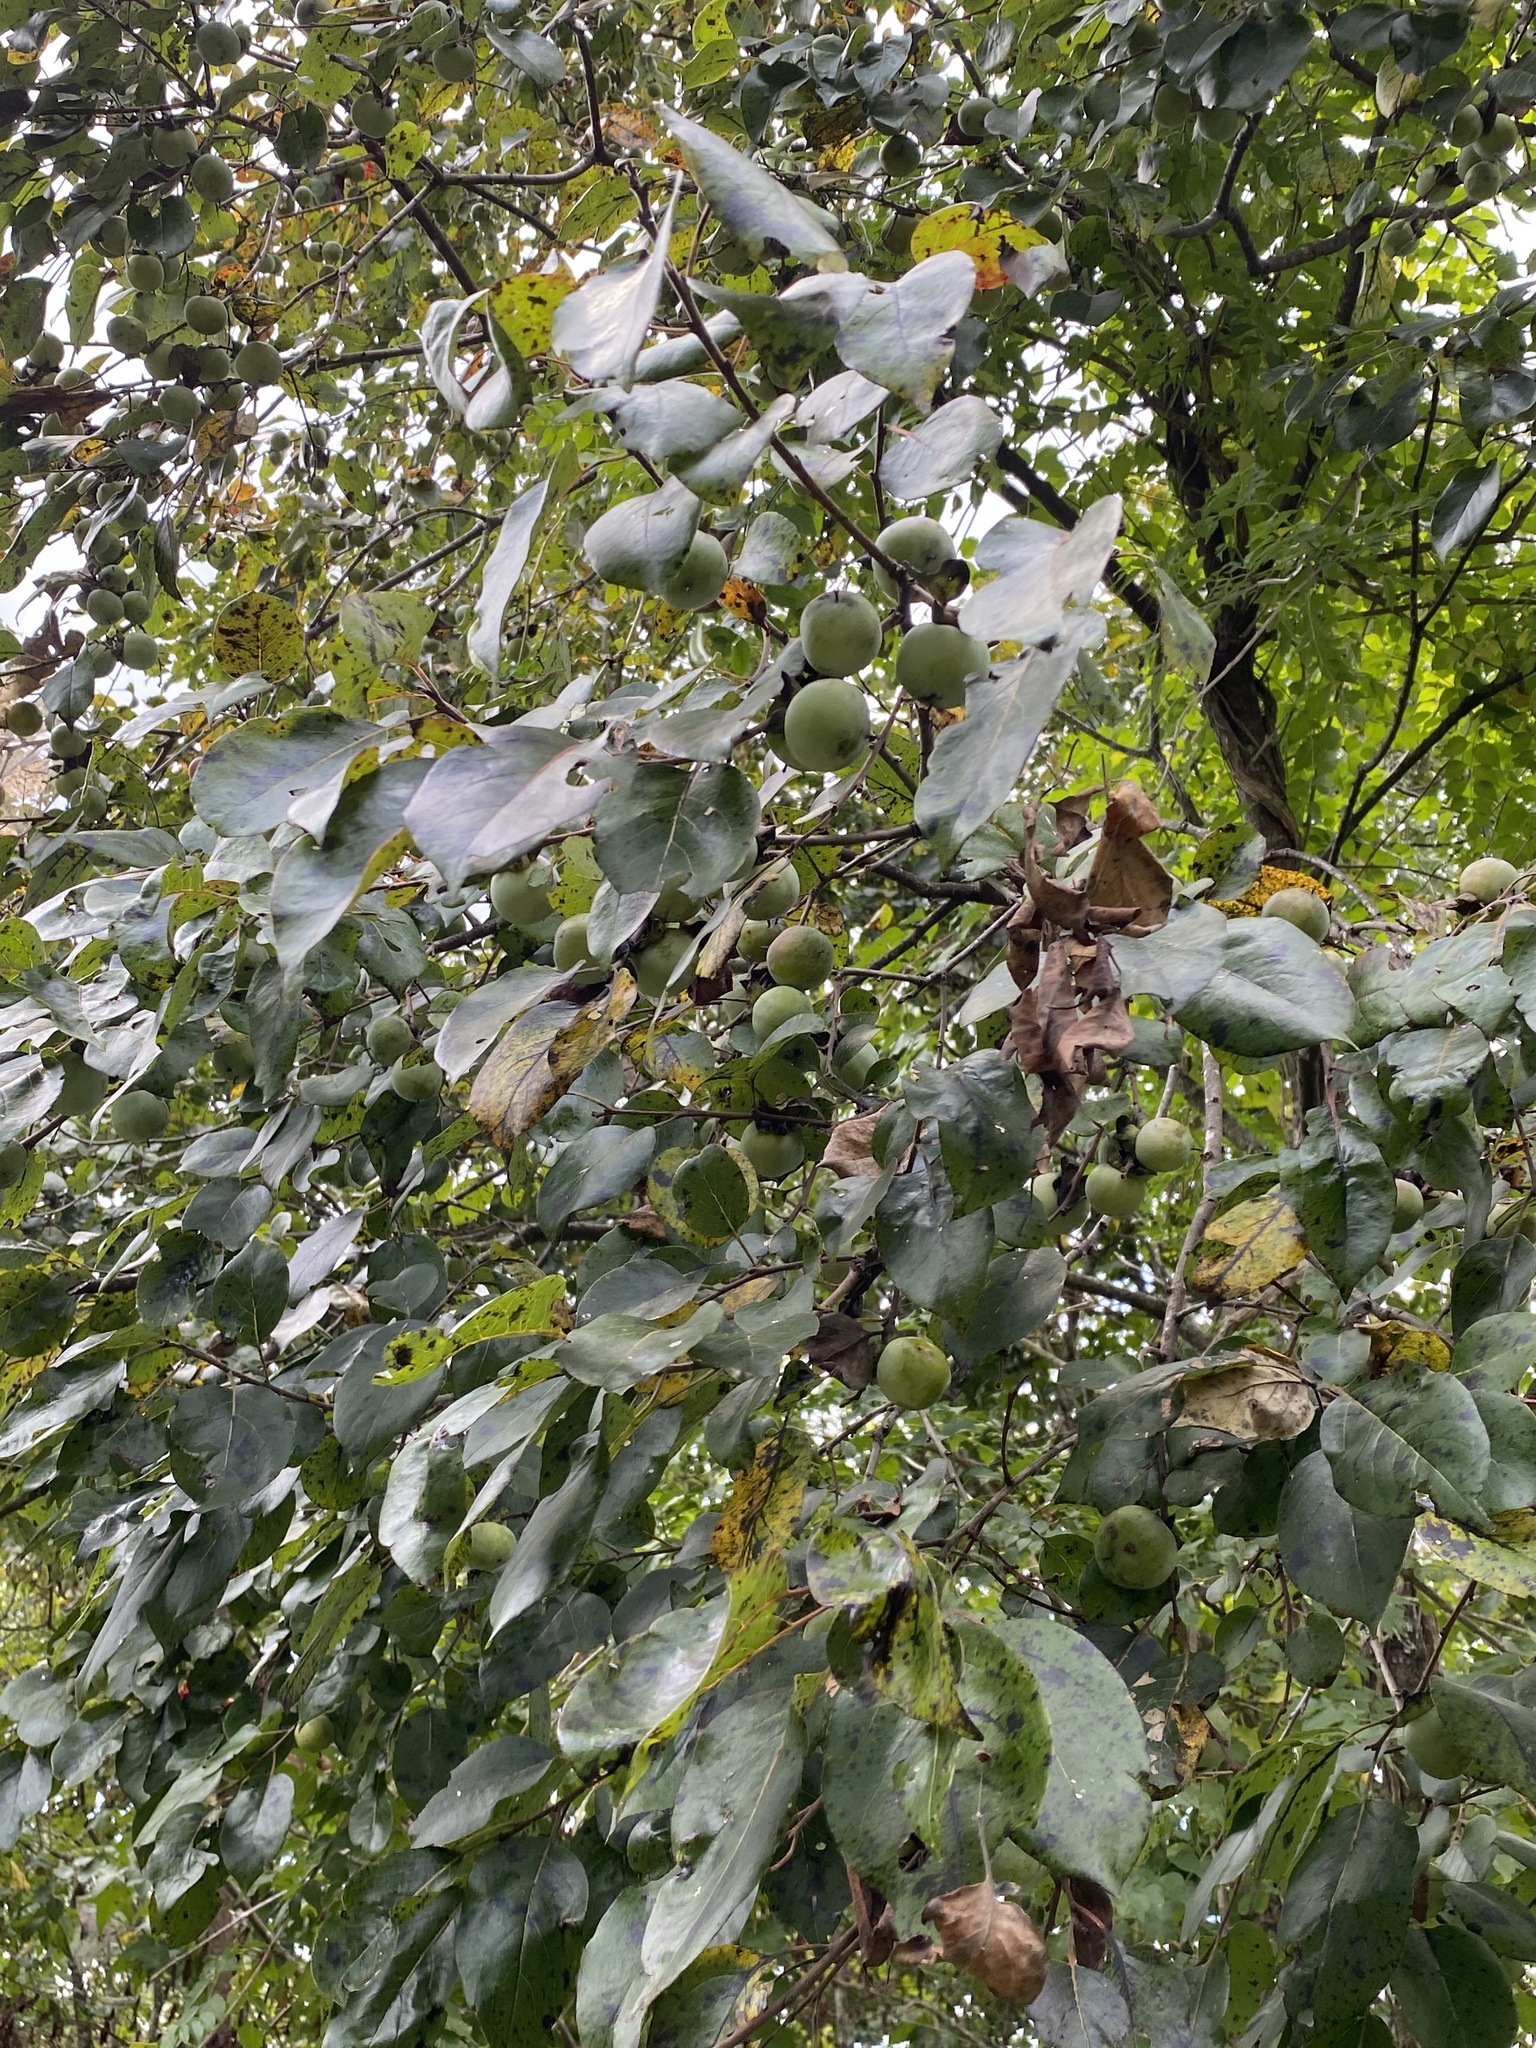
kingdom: Plantae
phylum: Tracheophyta
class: Magnoliopsida
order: Ericales
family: Ebenaceae
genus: Diospyros
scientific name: Diospyros virginiana
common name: Persimmon
